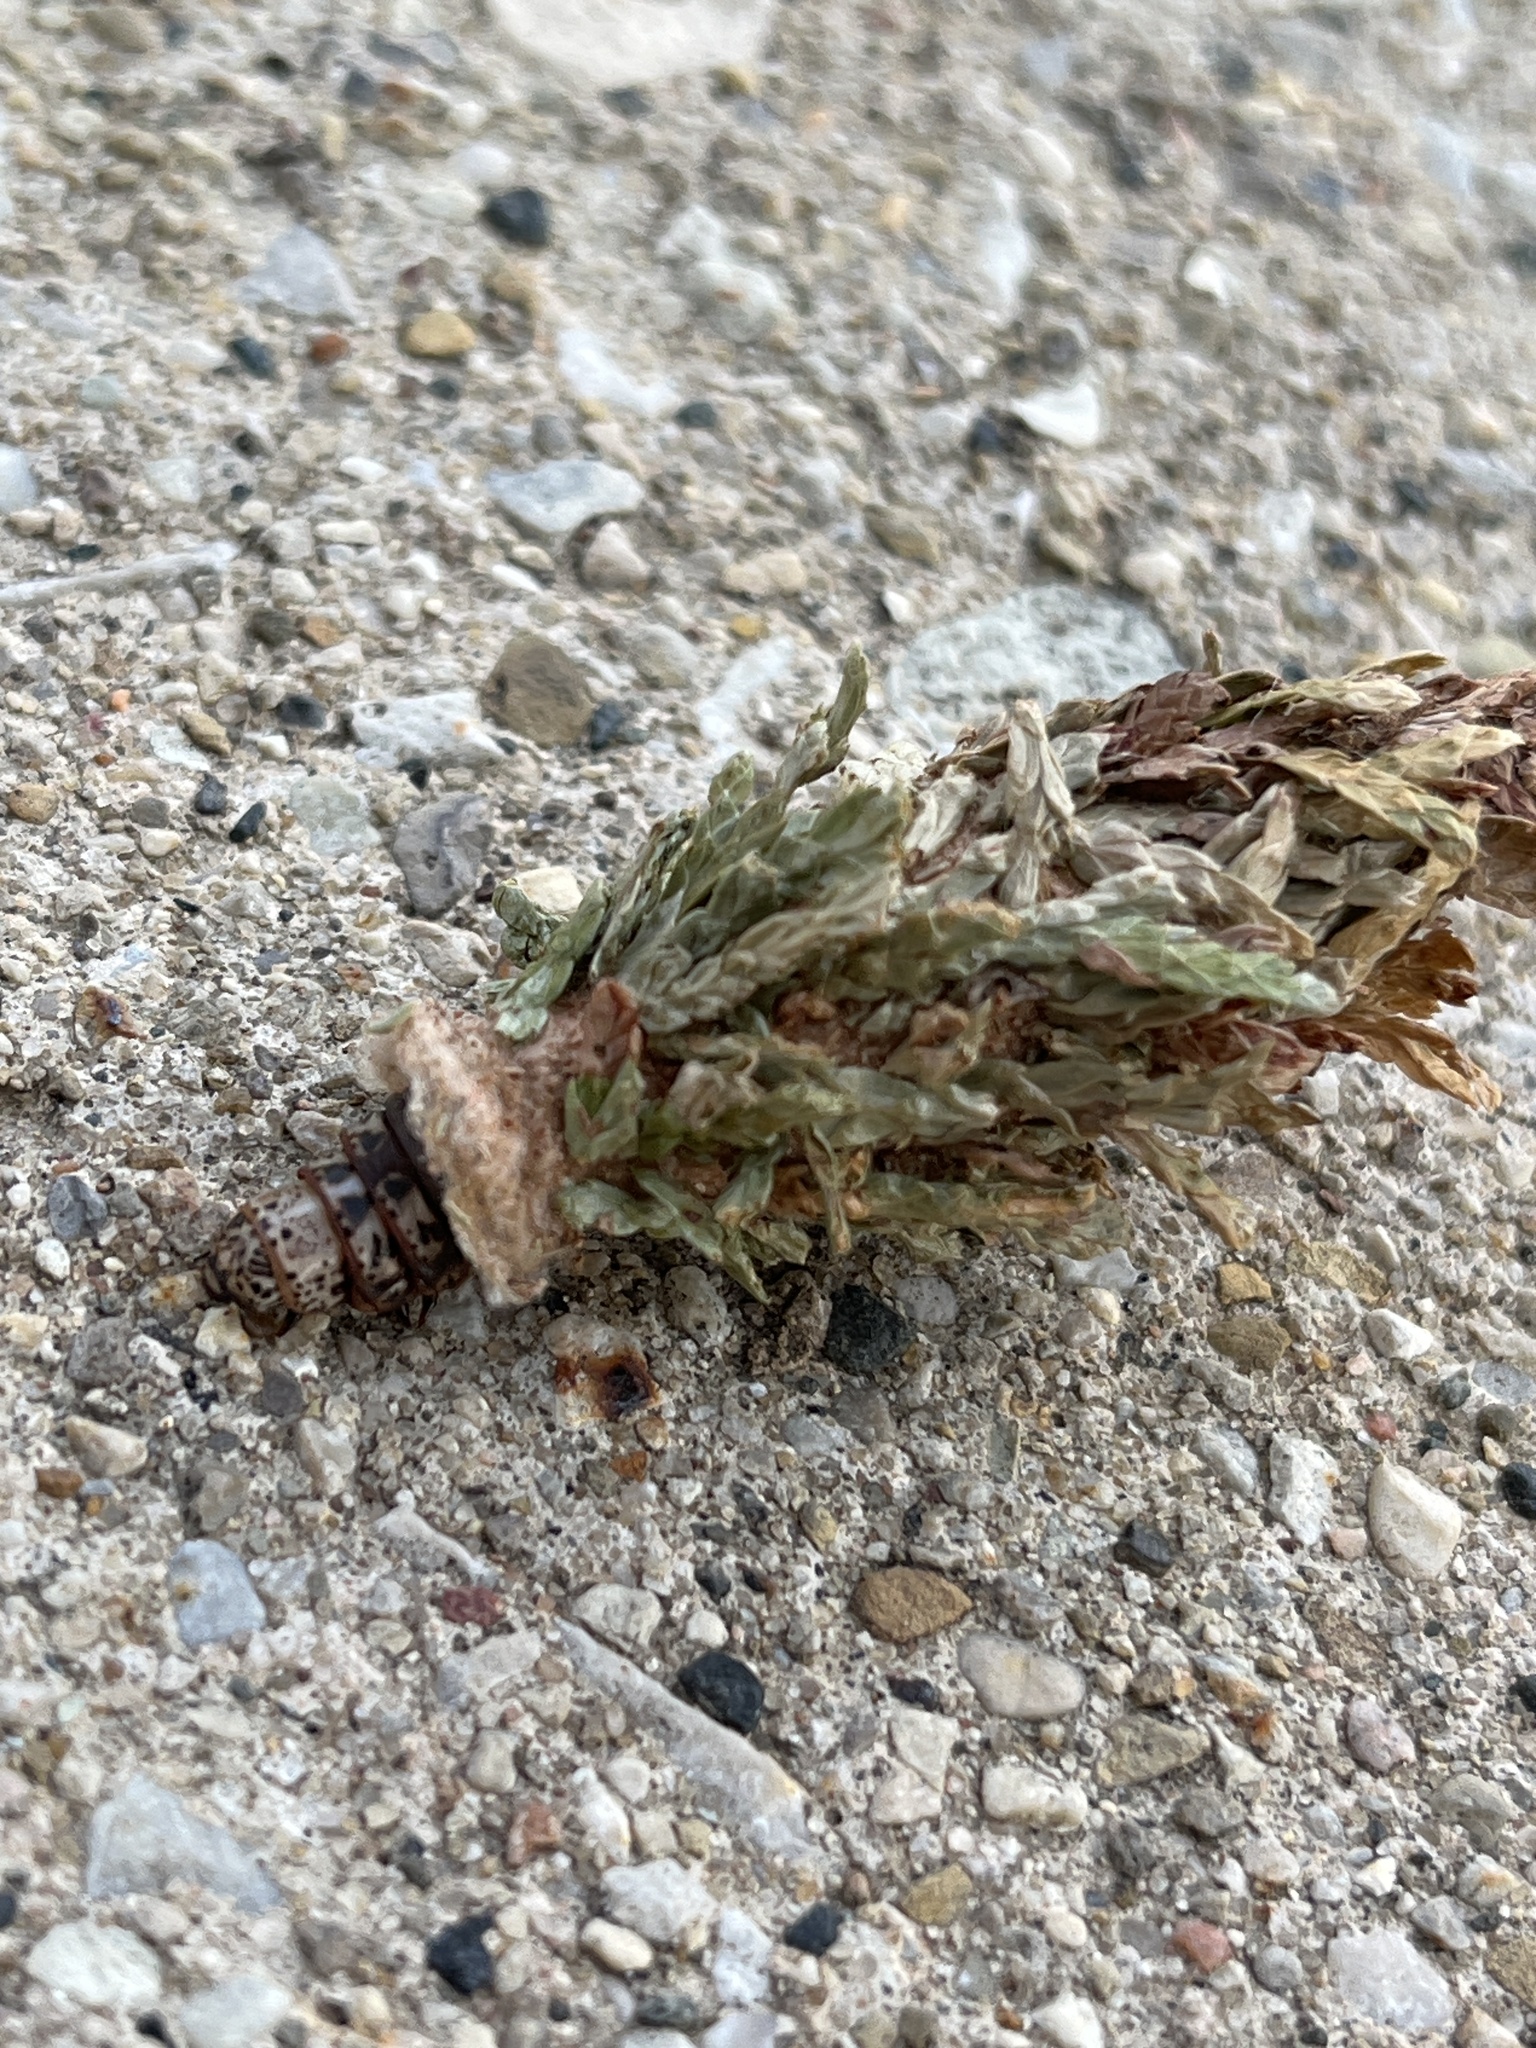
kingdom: Animalia
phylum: Arthropoda
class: Insecta
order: Lepidoptera
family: Psychidae
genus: Thyridopteryx
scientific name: Thyridopteryx ephemeraeformis
